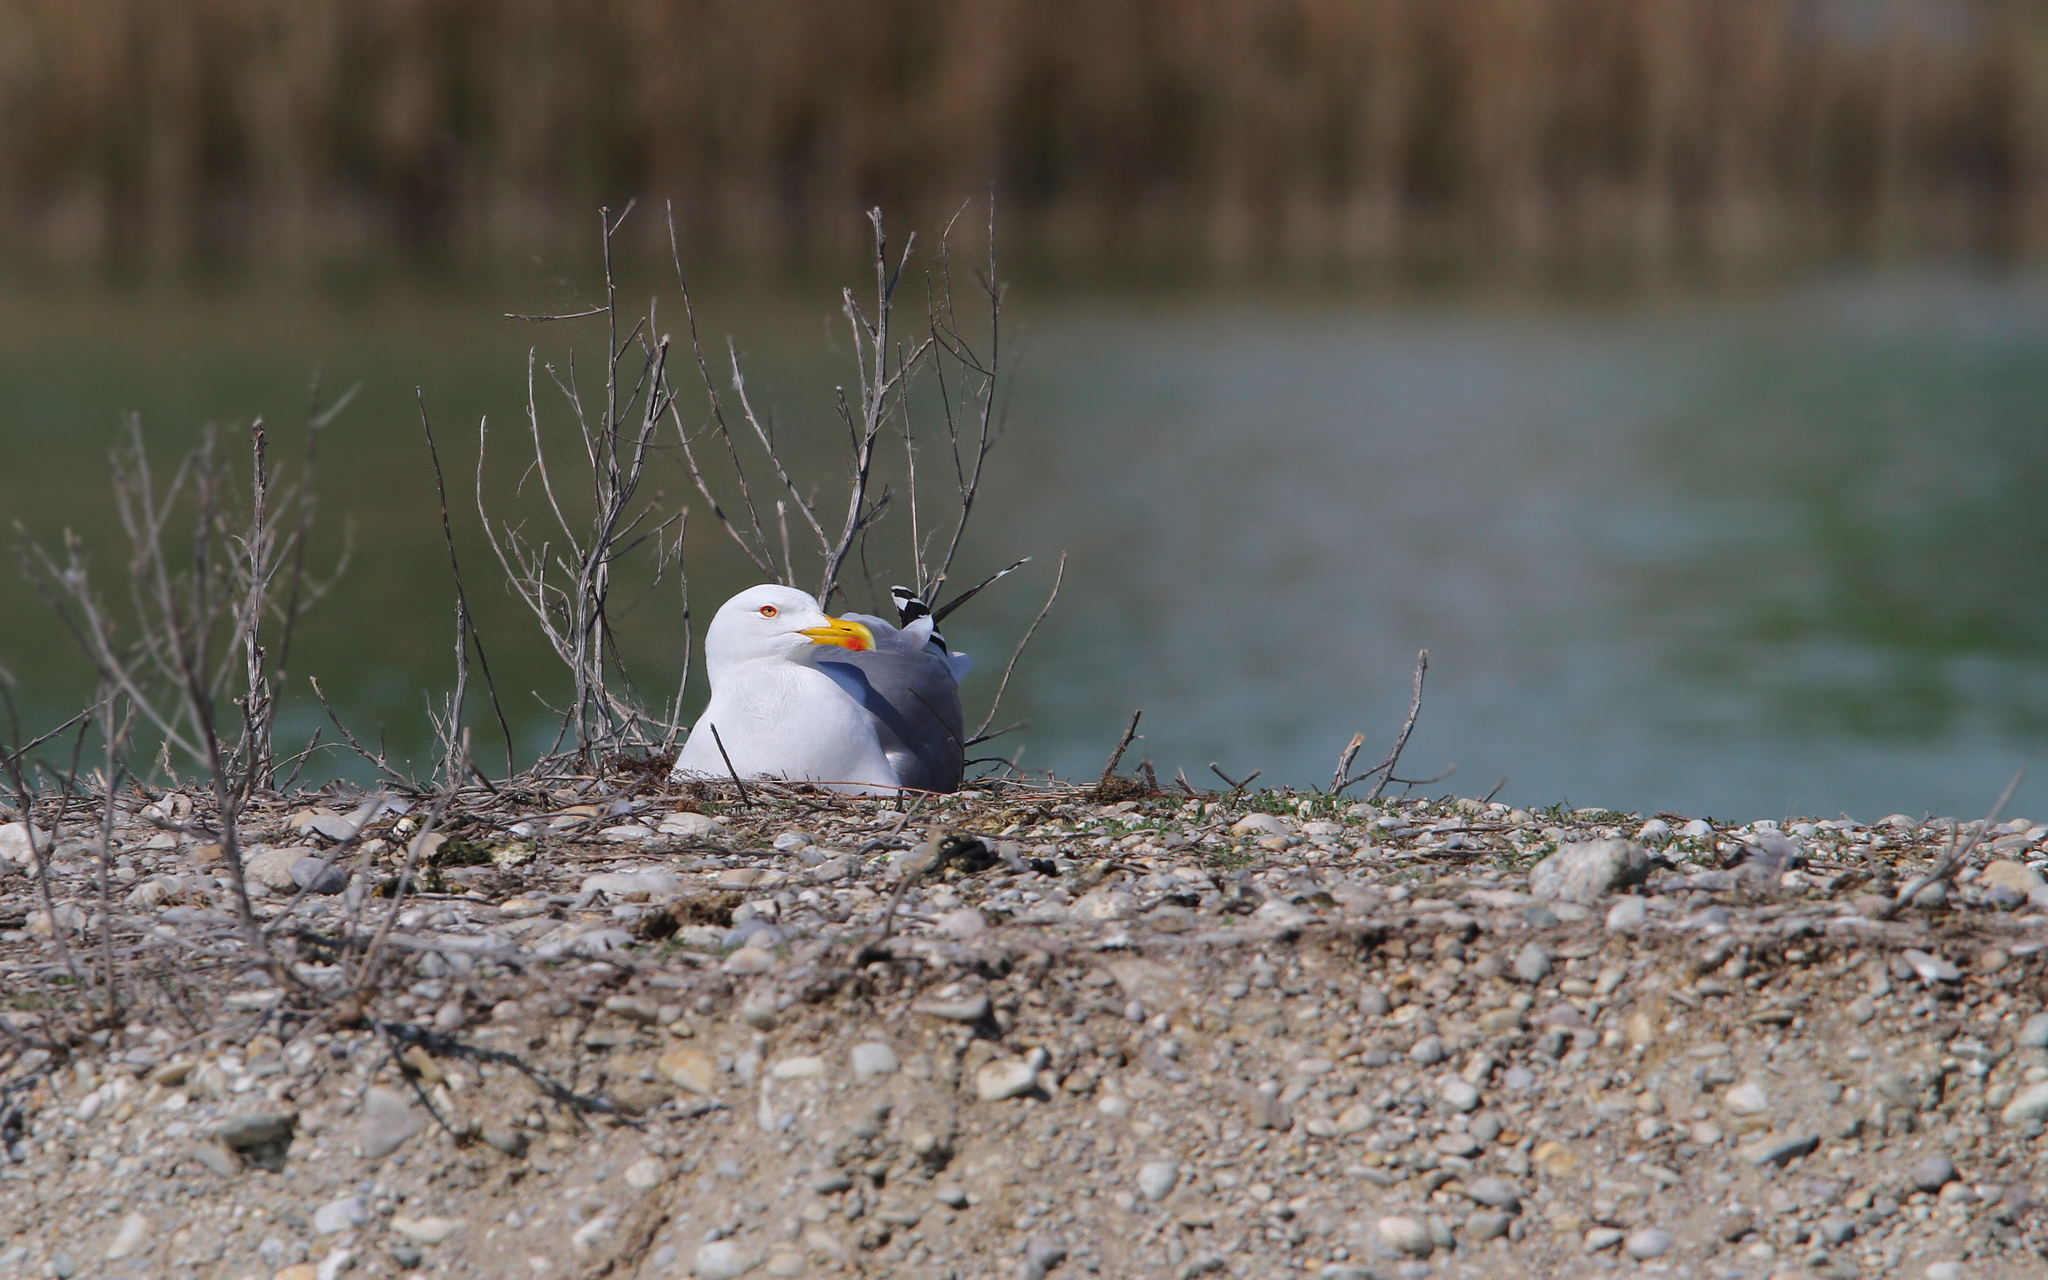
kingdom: Animalia
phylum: Chordata
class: Aves
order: Charadriiformes
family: Laridae
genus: Larus
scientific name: Larus michahellis
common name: Yellow-legged gull
